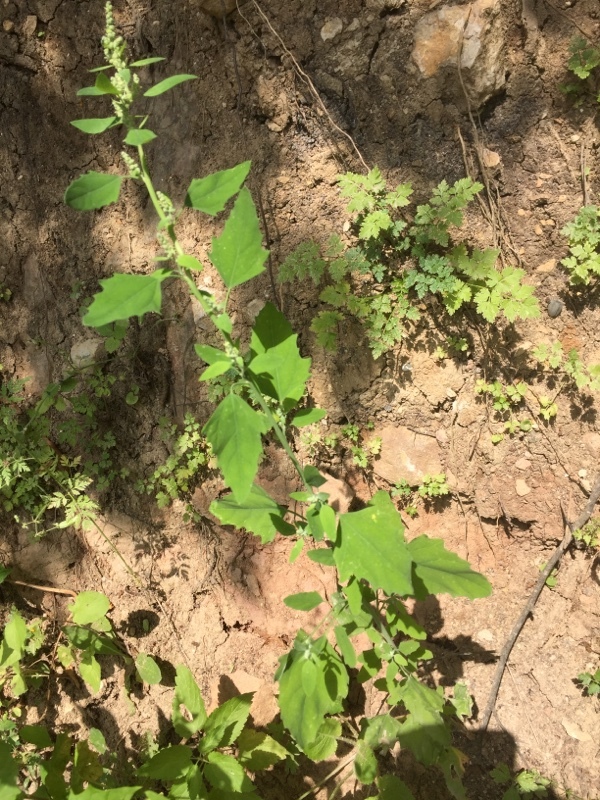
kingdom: Plantae
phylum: Tracheophyta
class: Magnoliopsida
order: Caryophyllales
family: Amaranthaceae
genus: Chenopodium
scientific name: Chenopodium album
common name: Fat-hen
